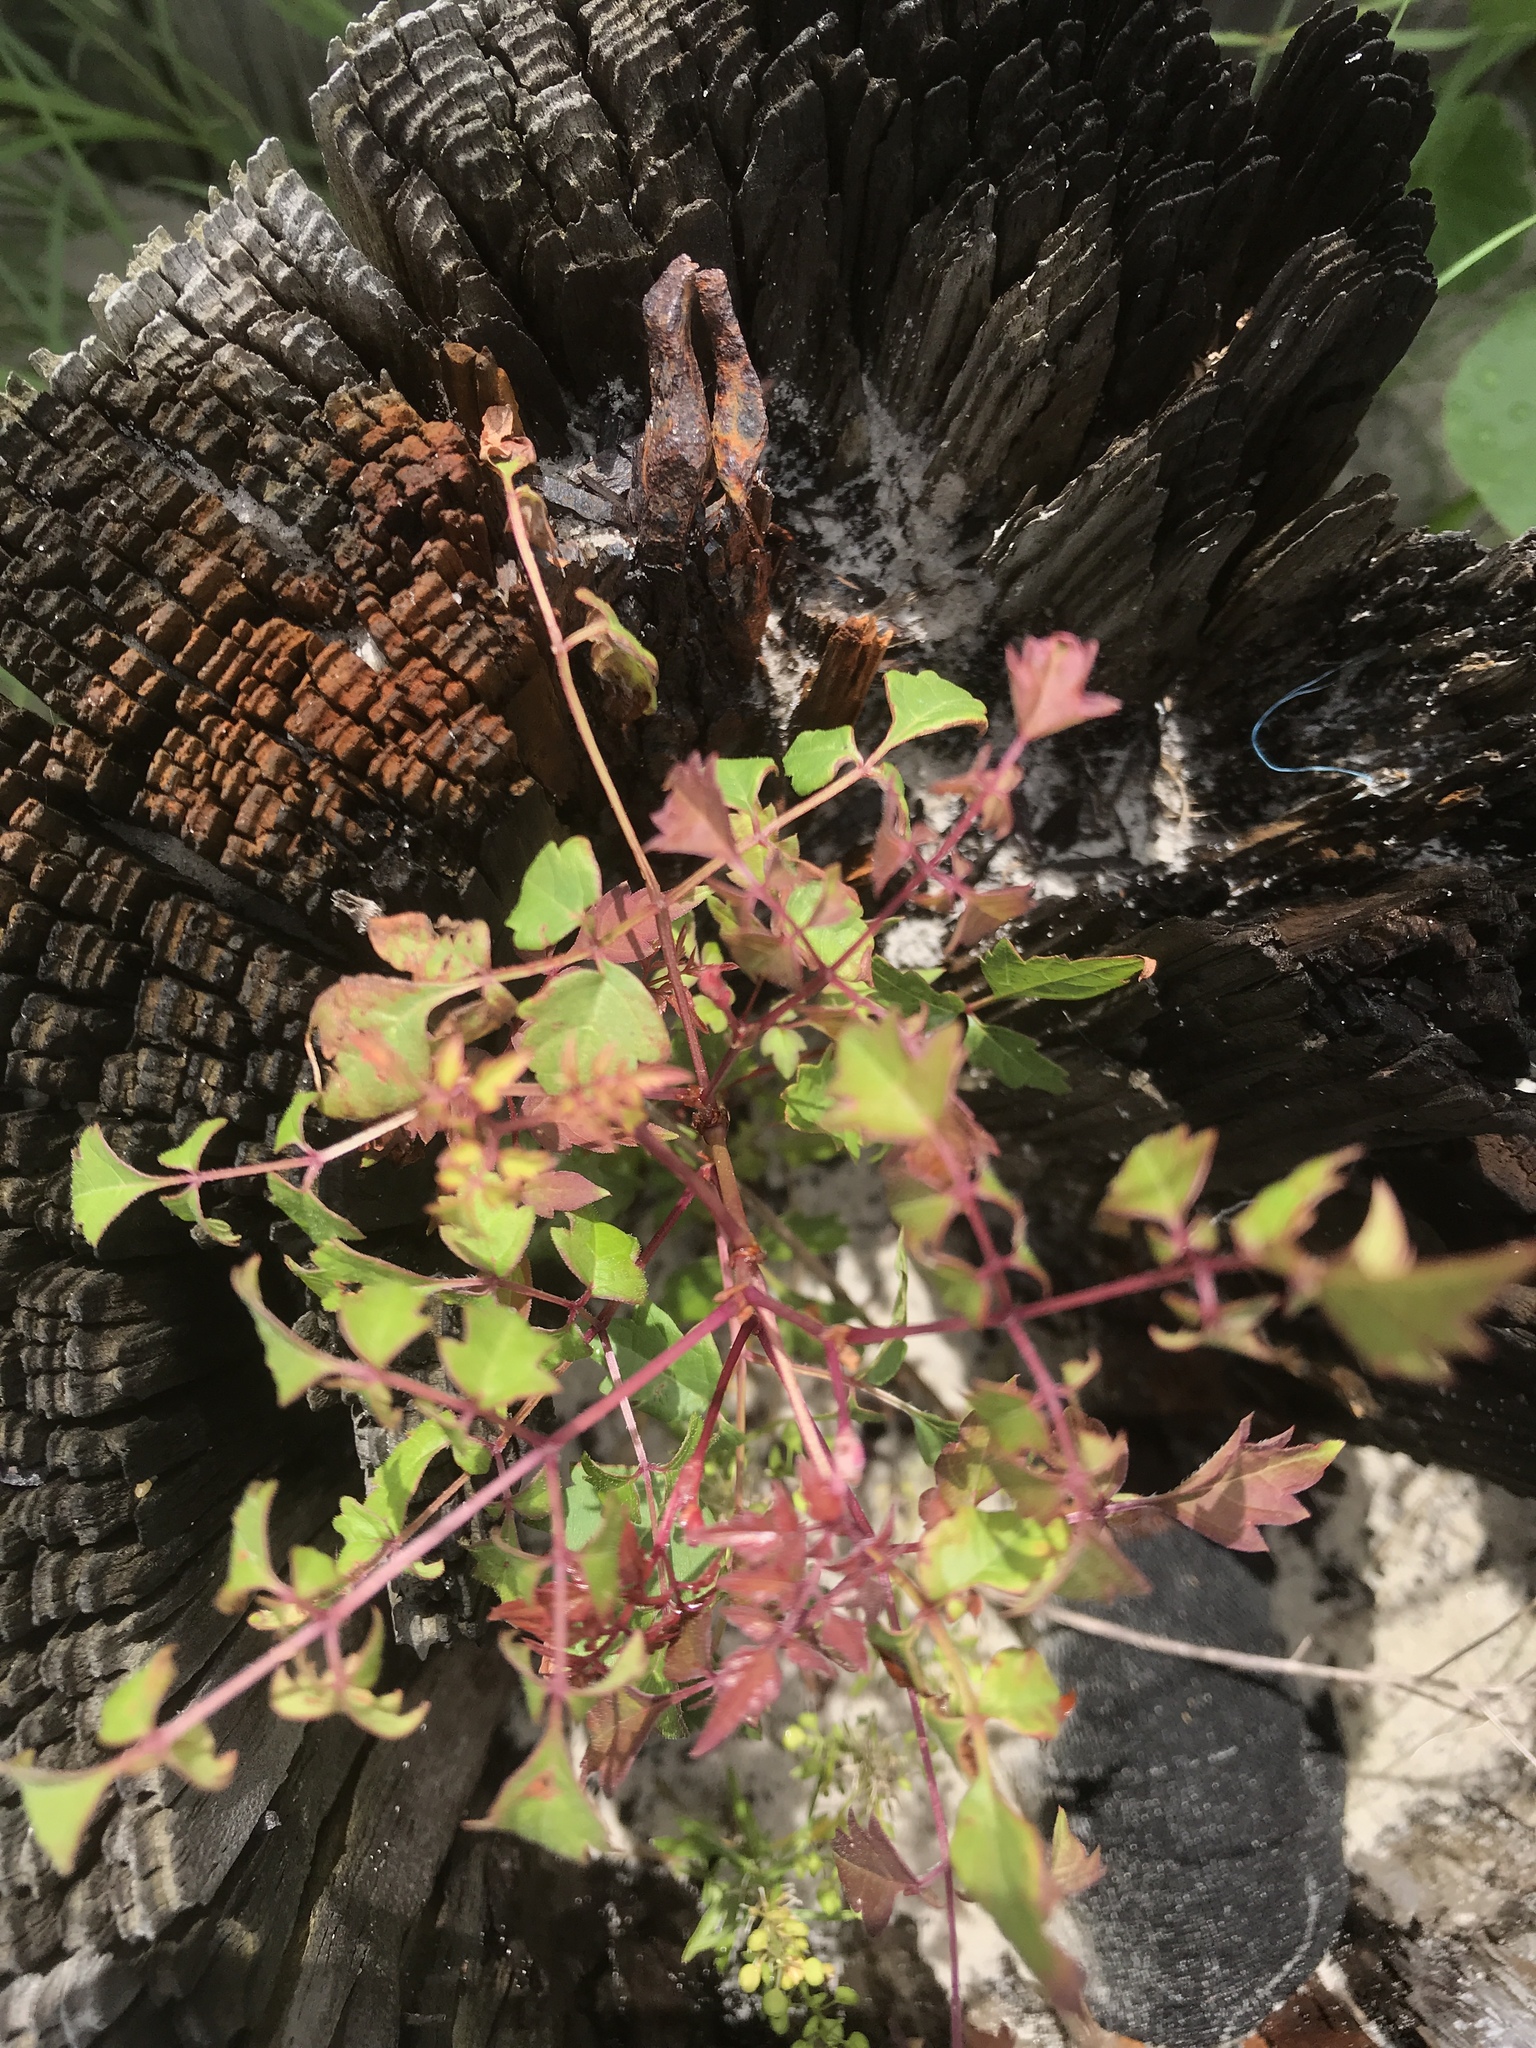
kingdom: Plantae
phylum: Tracheophyta
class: Magnoliopsida
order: Vitales
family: Vitaceae
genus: Nekemias
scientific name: Nekemias arborea
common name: Peppervine
